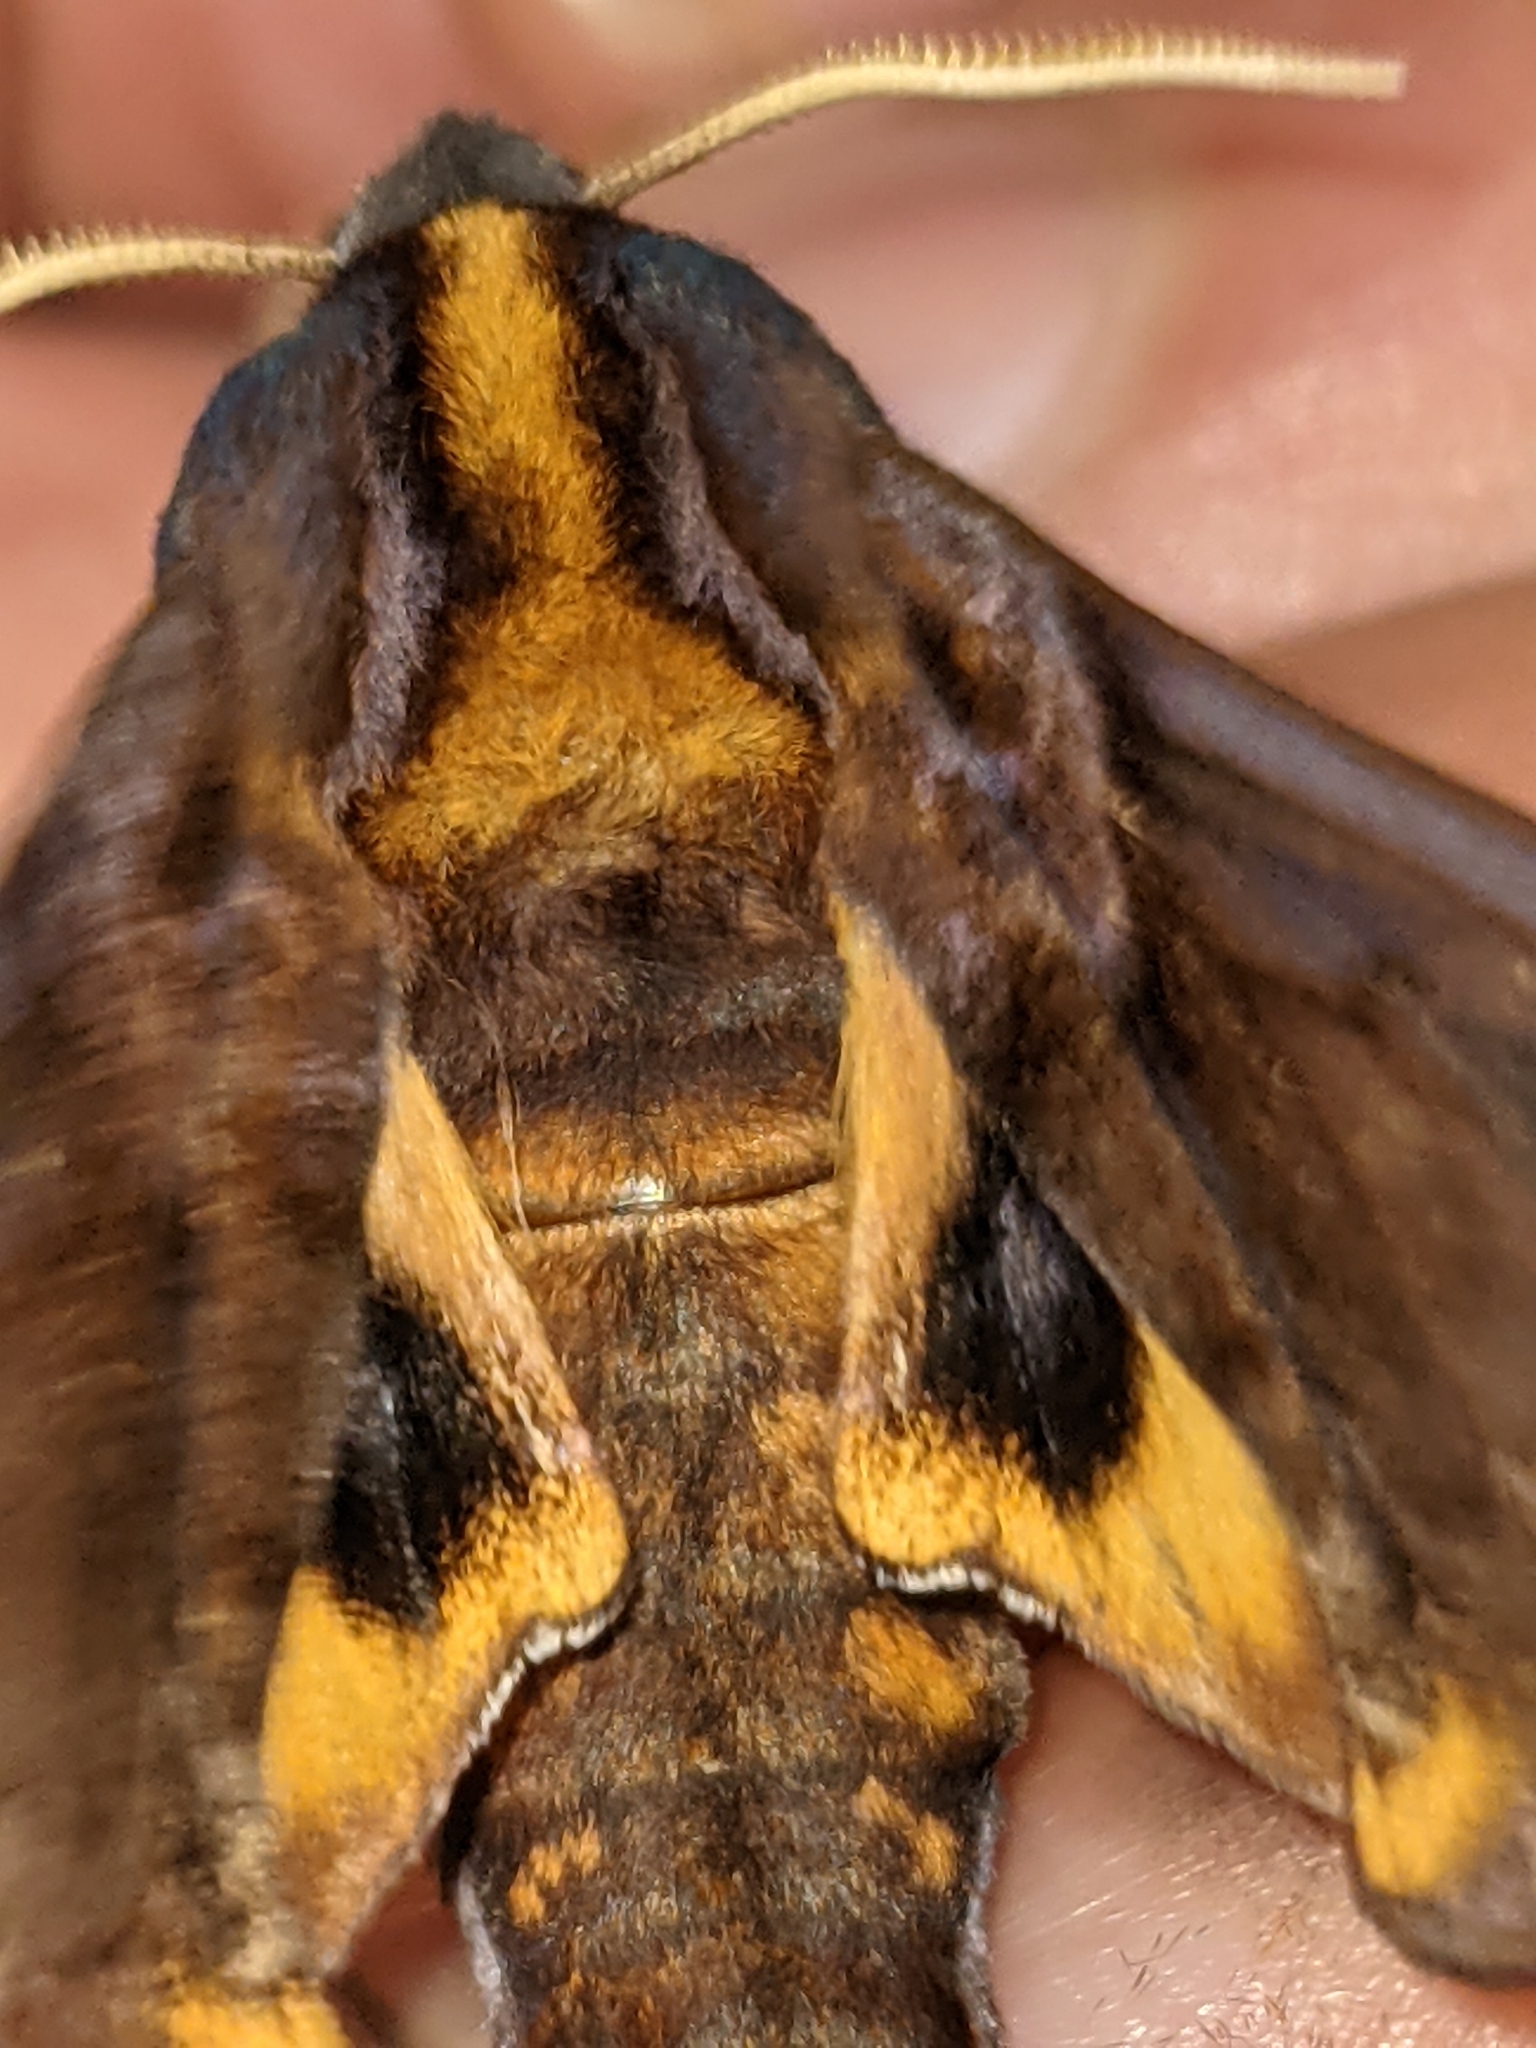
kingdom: Animalia
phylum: Arthropoda
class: Insecta
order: Lepidoptera
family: Sphingidae
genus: Paonias
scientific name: Paonias myops
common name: Small-eyed sphinx
